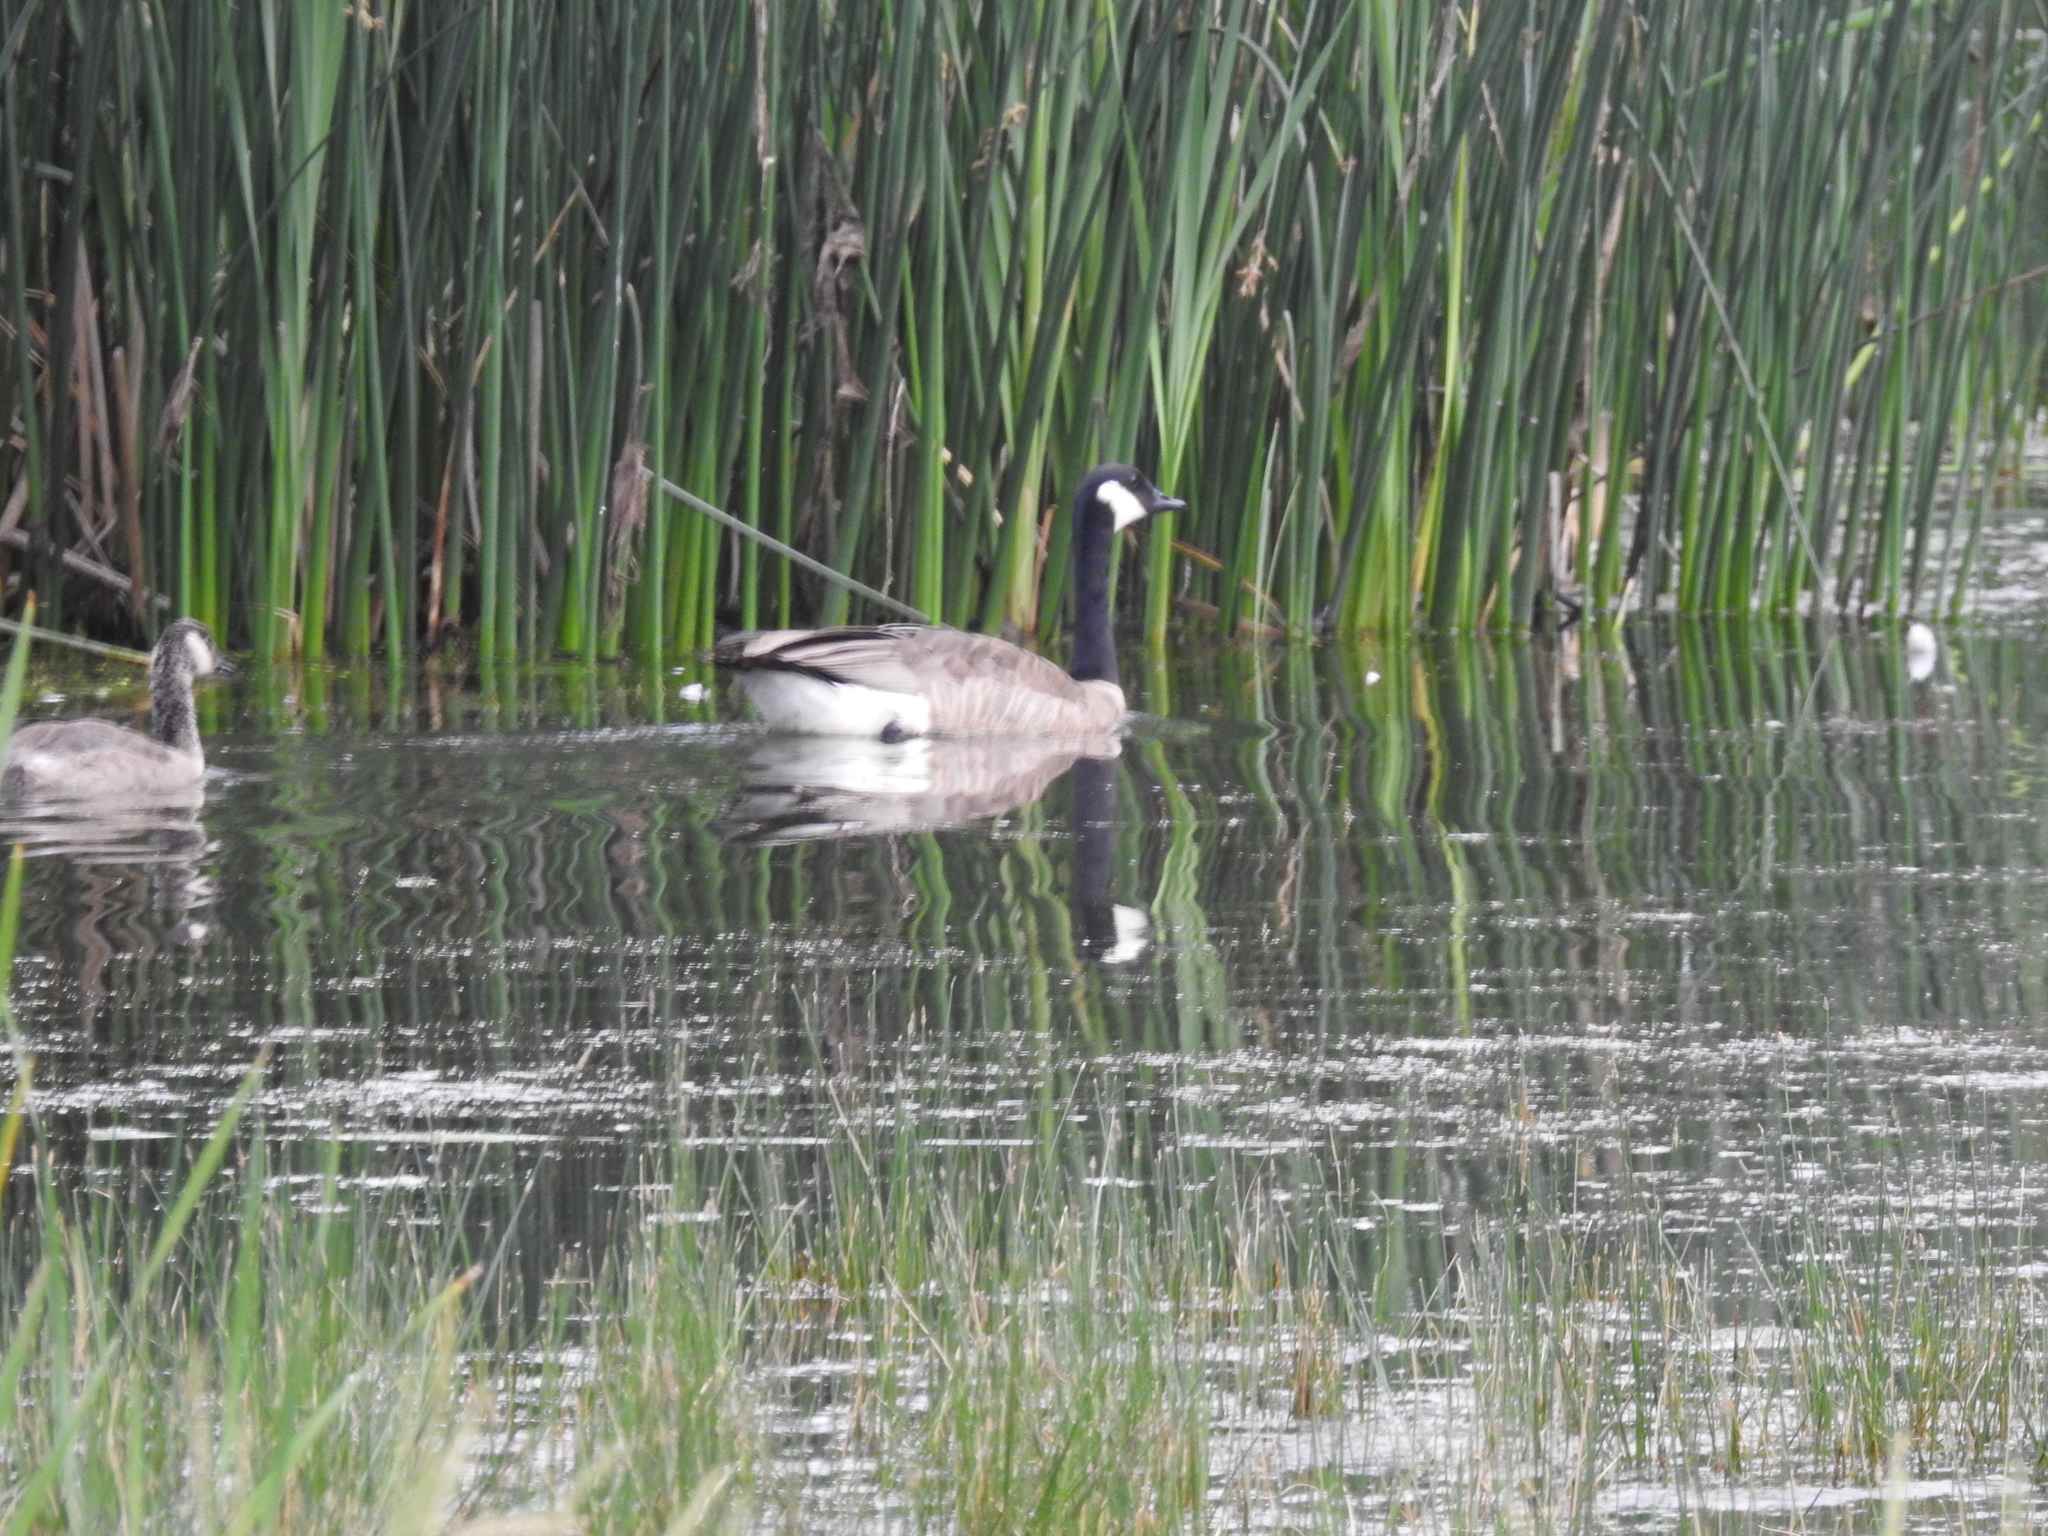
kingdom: Animalia
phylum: Chordata
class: Aves
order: Anseriformes
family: Anatidae
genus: Branta
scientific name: Branta canadensis
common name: Canada goose
